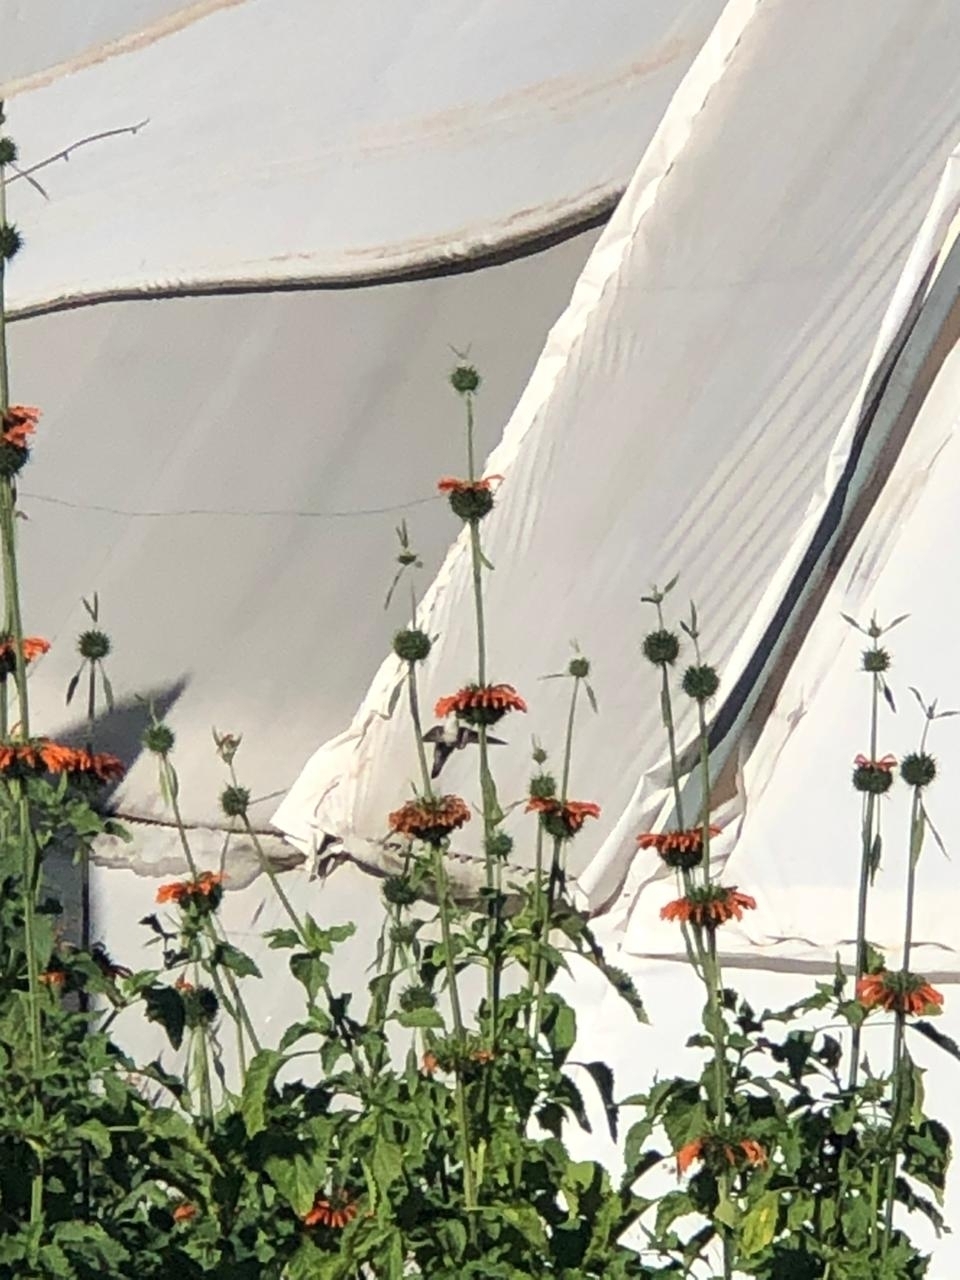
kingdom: Plantae
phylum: Tracheophyta
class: Magnoliopsida
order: Lamiales
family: Lamiaceae
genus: Leonotis
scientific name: Leonotis nepetifolia
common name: Christmas candlestick
